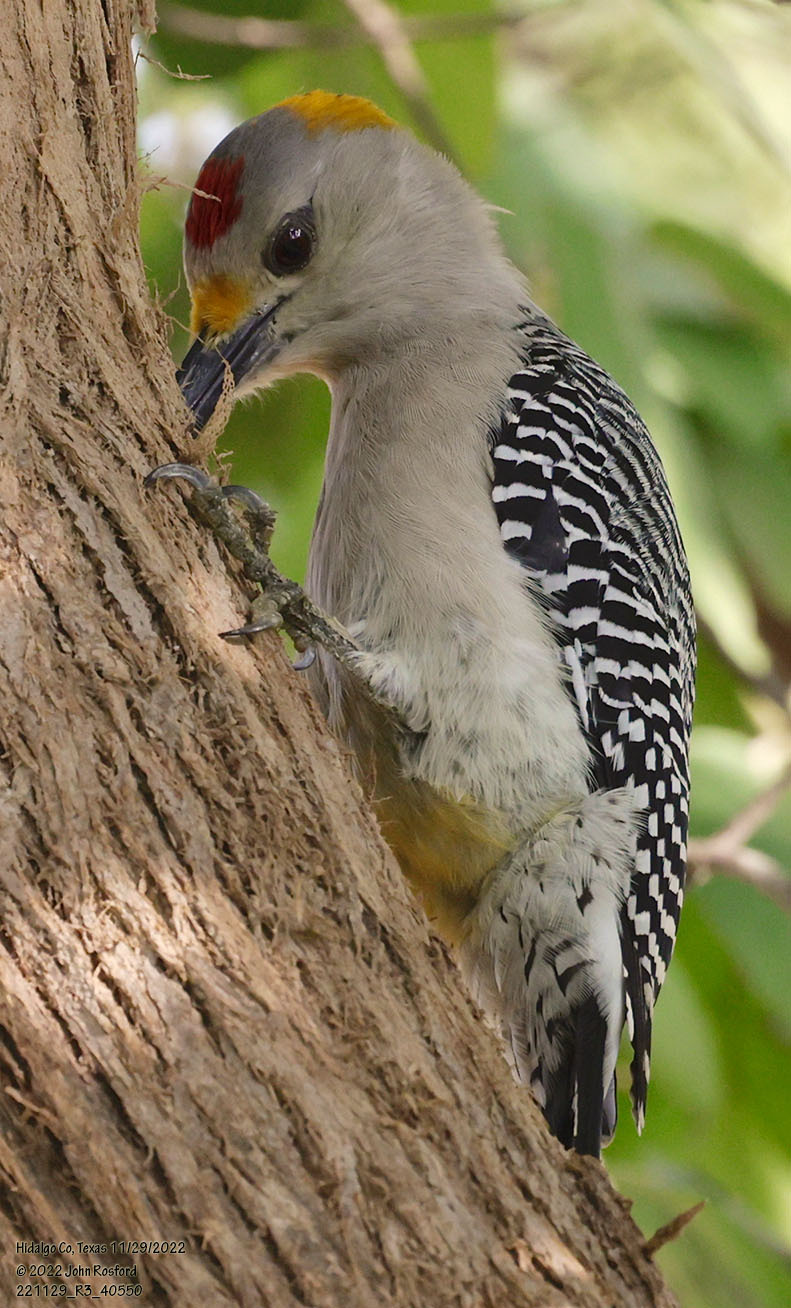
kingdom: Animalia
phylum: Chordata
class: Aves
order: Piciformes
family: Picidae
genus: Melanerpes
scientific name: Melanerpes aurifrons
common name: Golden-fronted woodpecker
